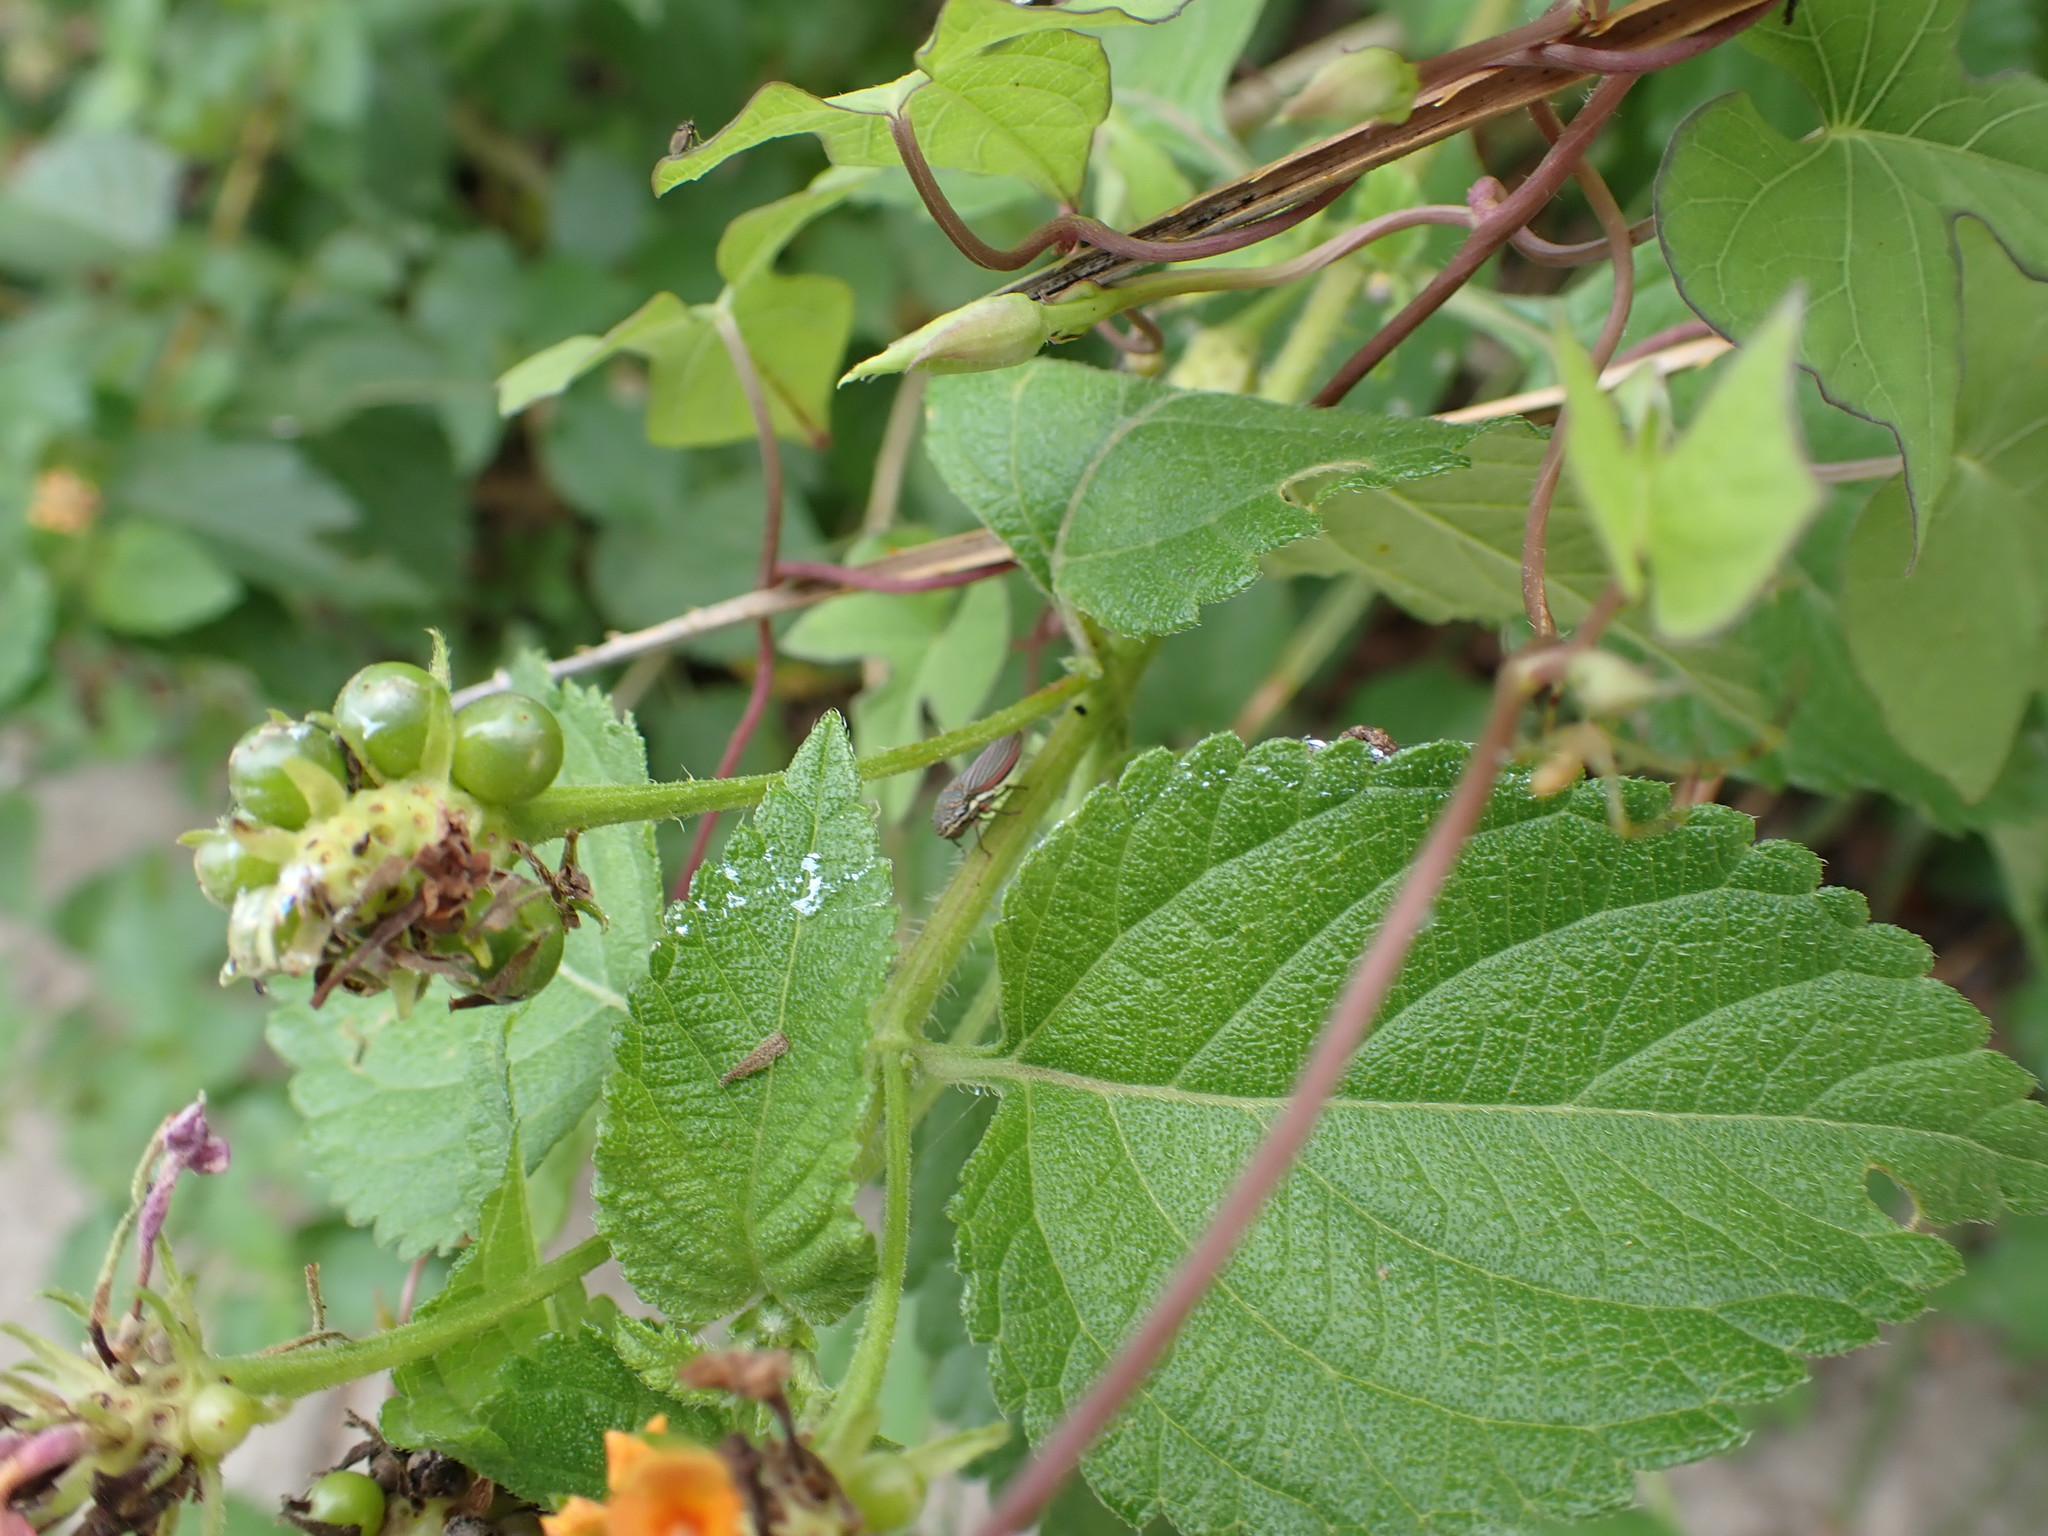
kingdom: Animalia
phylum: Arthropoda
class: Insecta
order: Hemiptera
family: Cicadellidae
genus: Cuerna
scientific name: Cuerna costalis
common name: Lateral-lined sharpshooter
